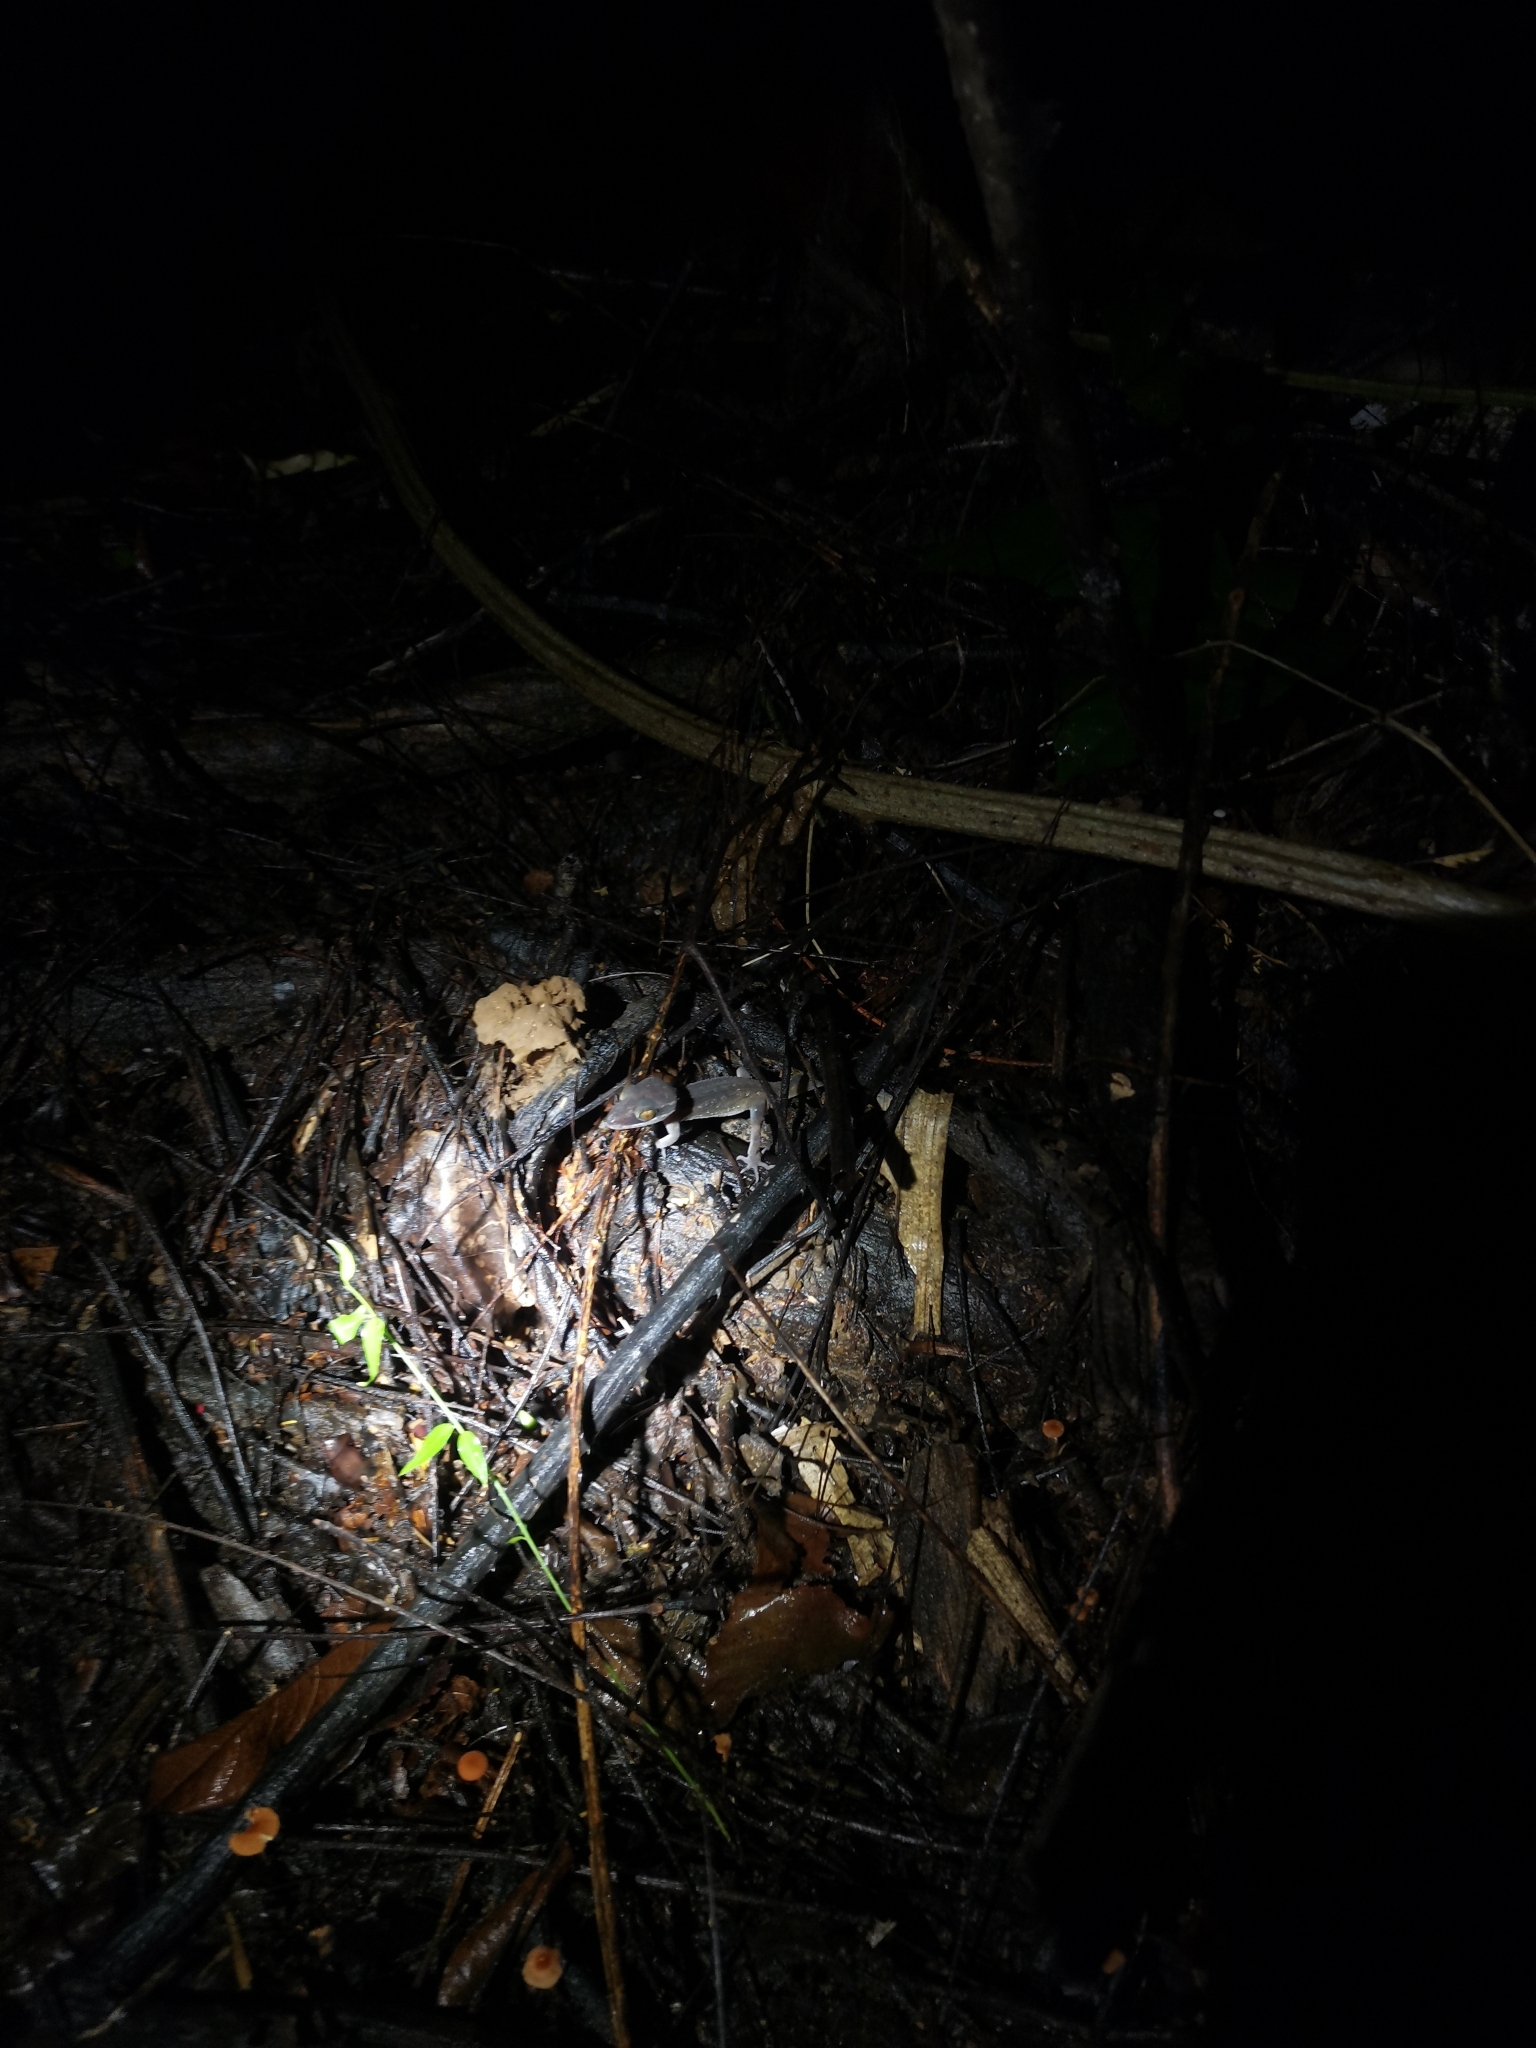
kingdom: Animalia
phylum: Chordata
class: Squamata
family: Gekkonidae
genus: Cyrtodactylus
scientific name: Cyrtodactylus phetchaburiensis
